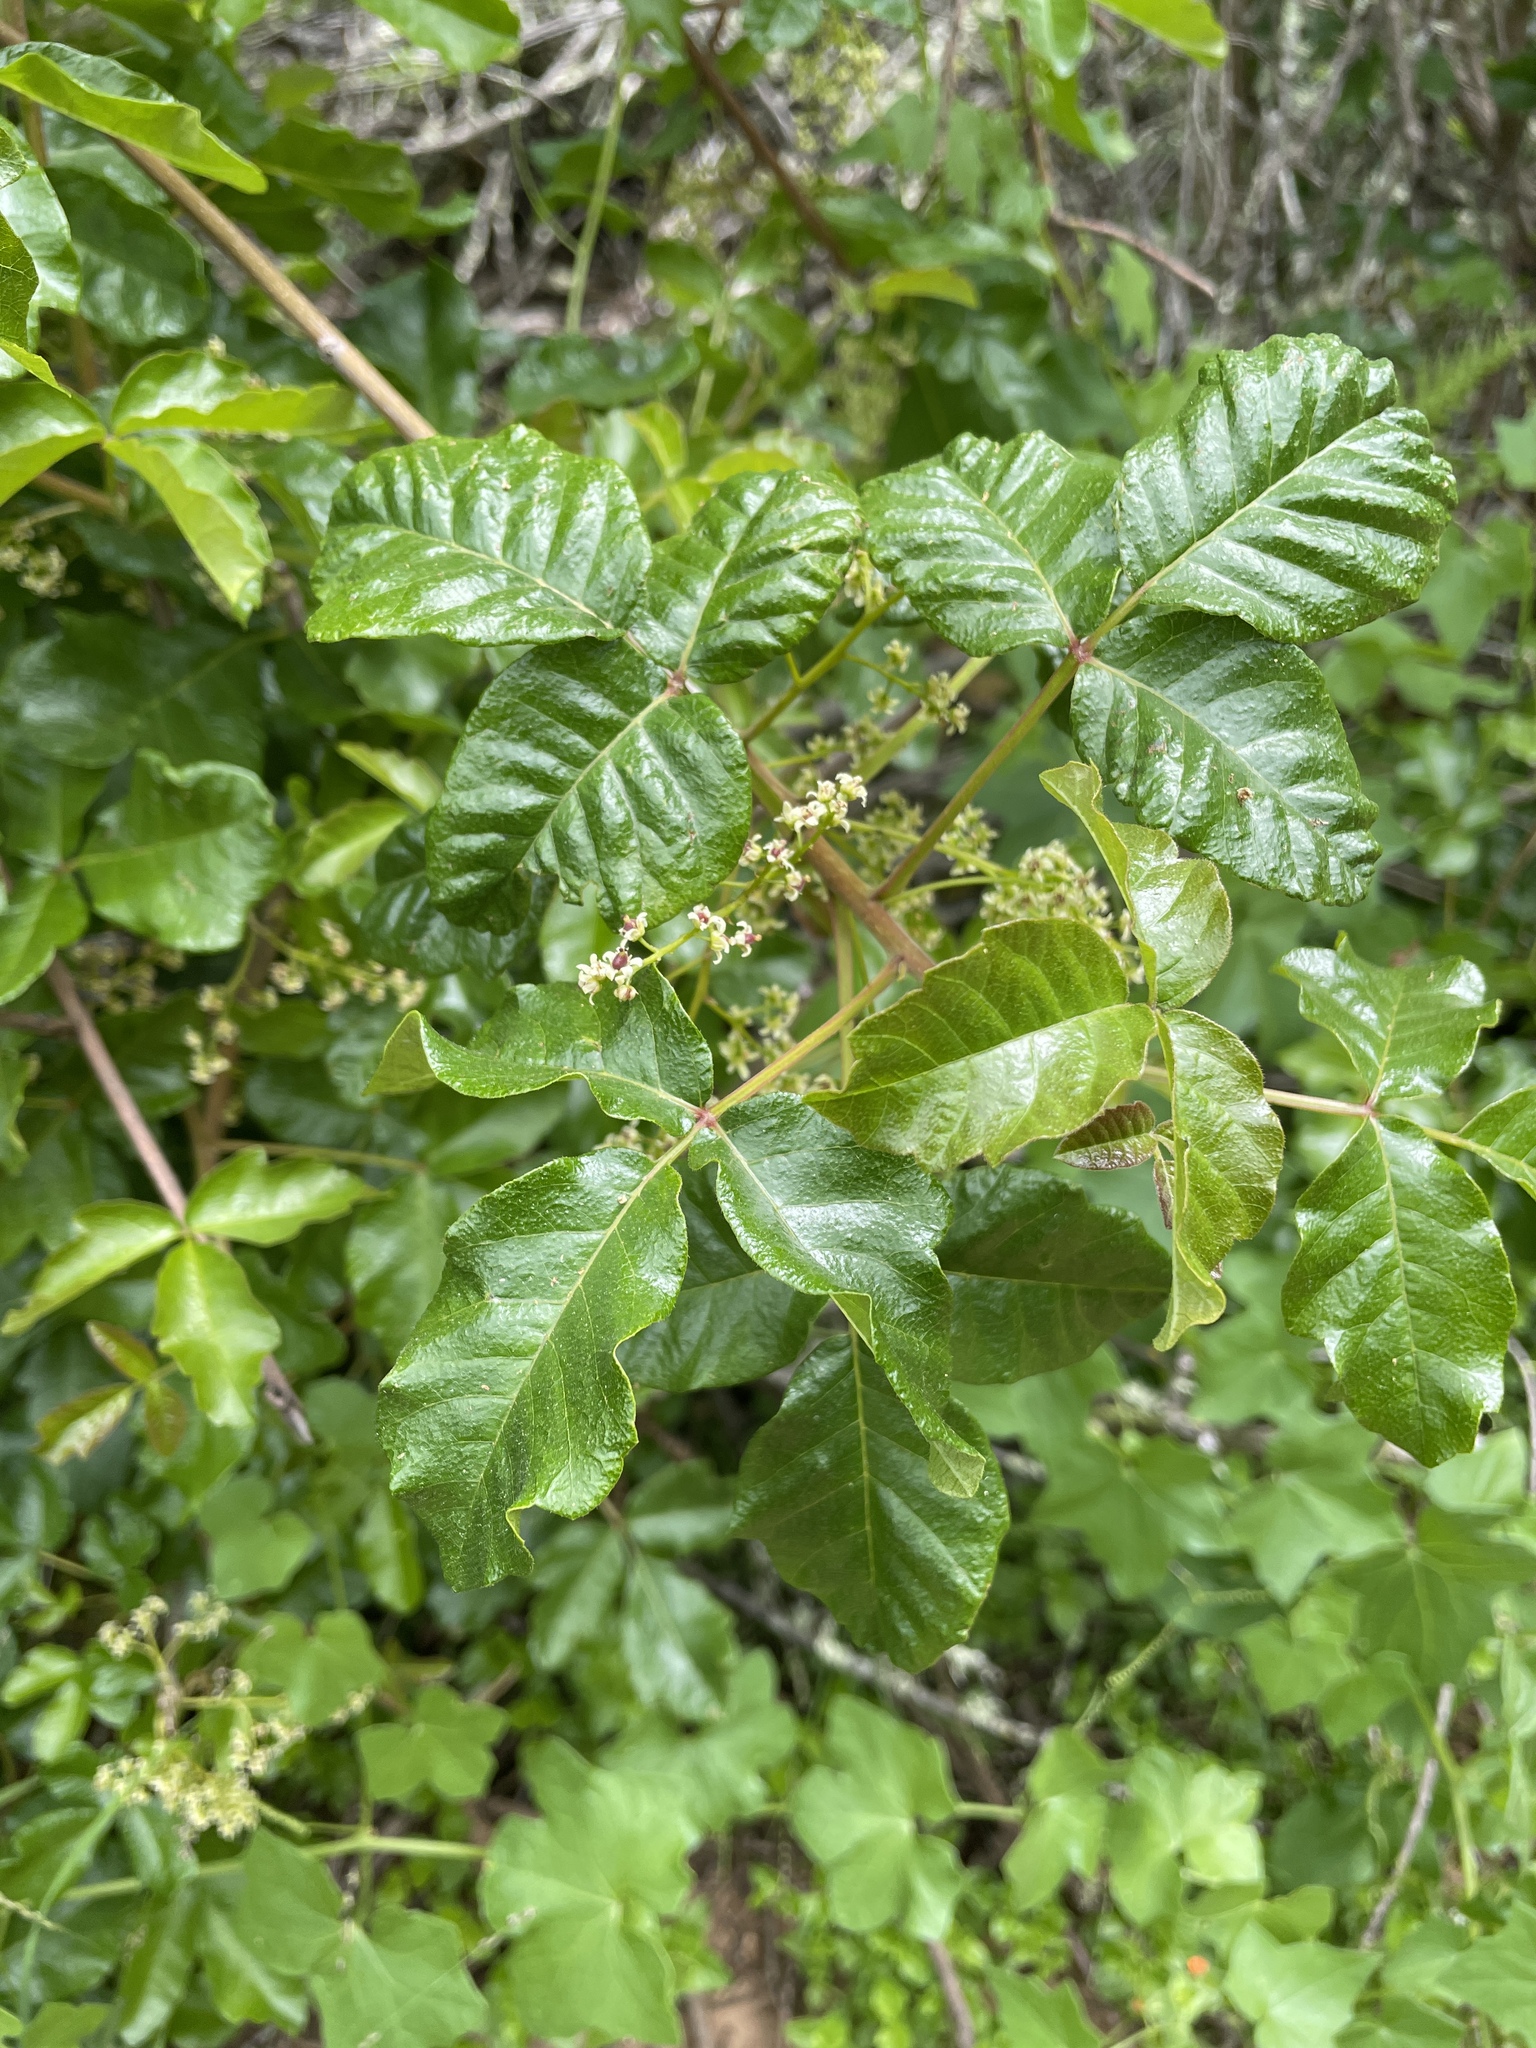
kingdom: Plantae
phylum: Tracheophyta
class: Magnoliopsida
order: Sapindales
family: Anacardiaceae
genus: Toxicodendron
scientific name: Toxicodendron diversilobum
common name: Pacific poison-oak
